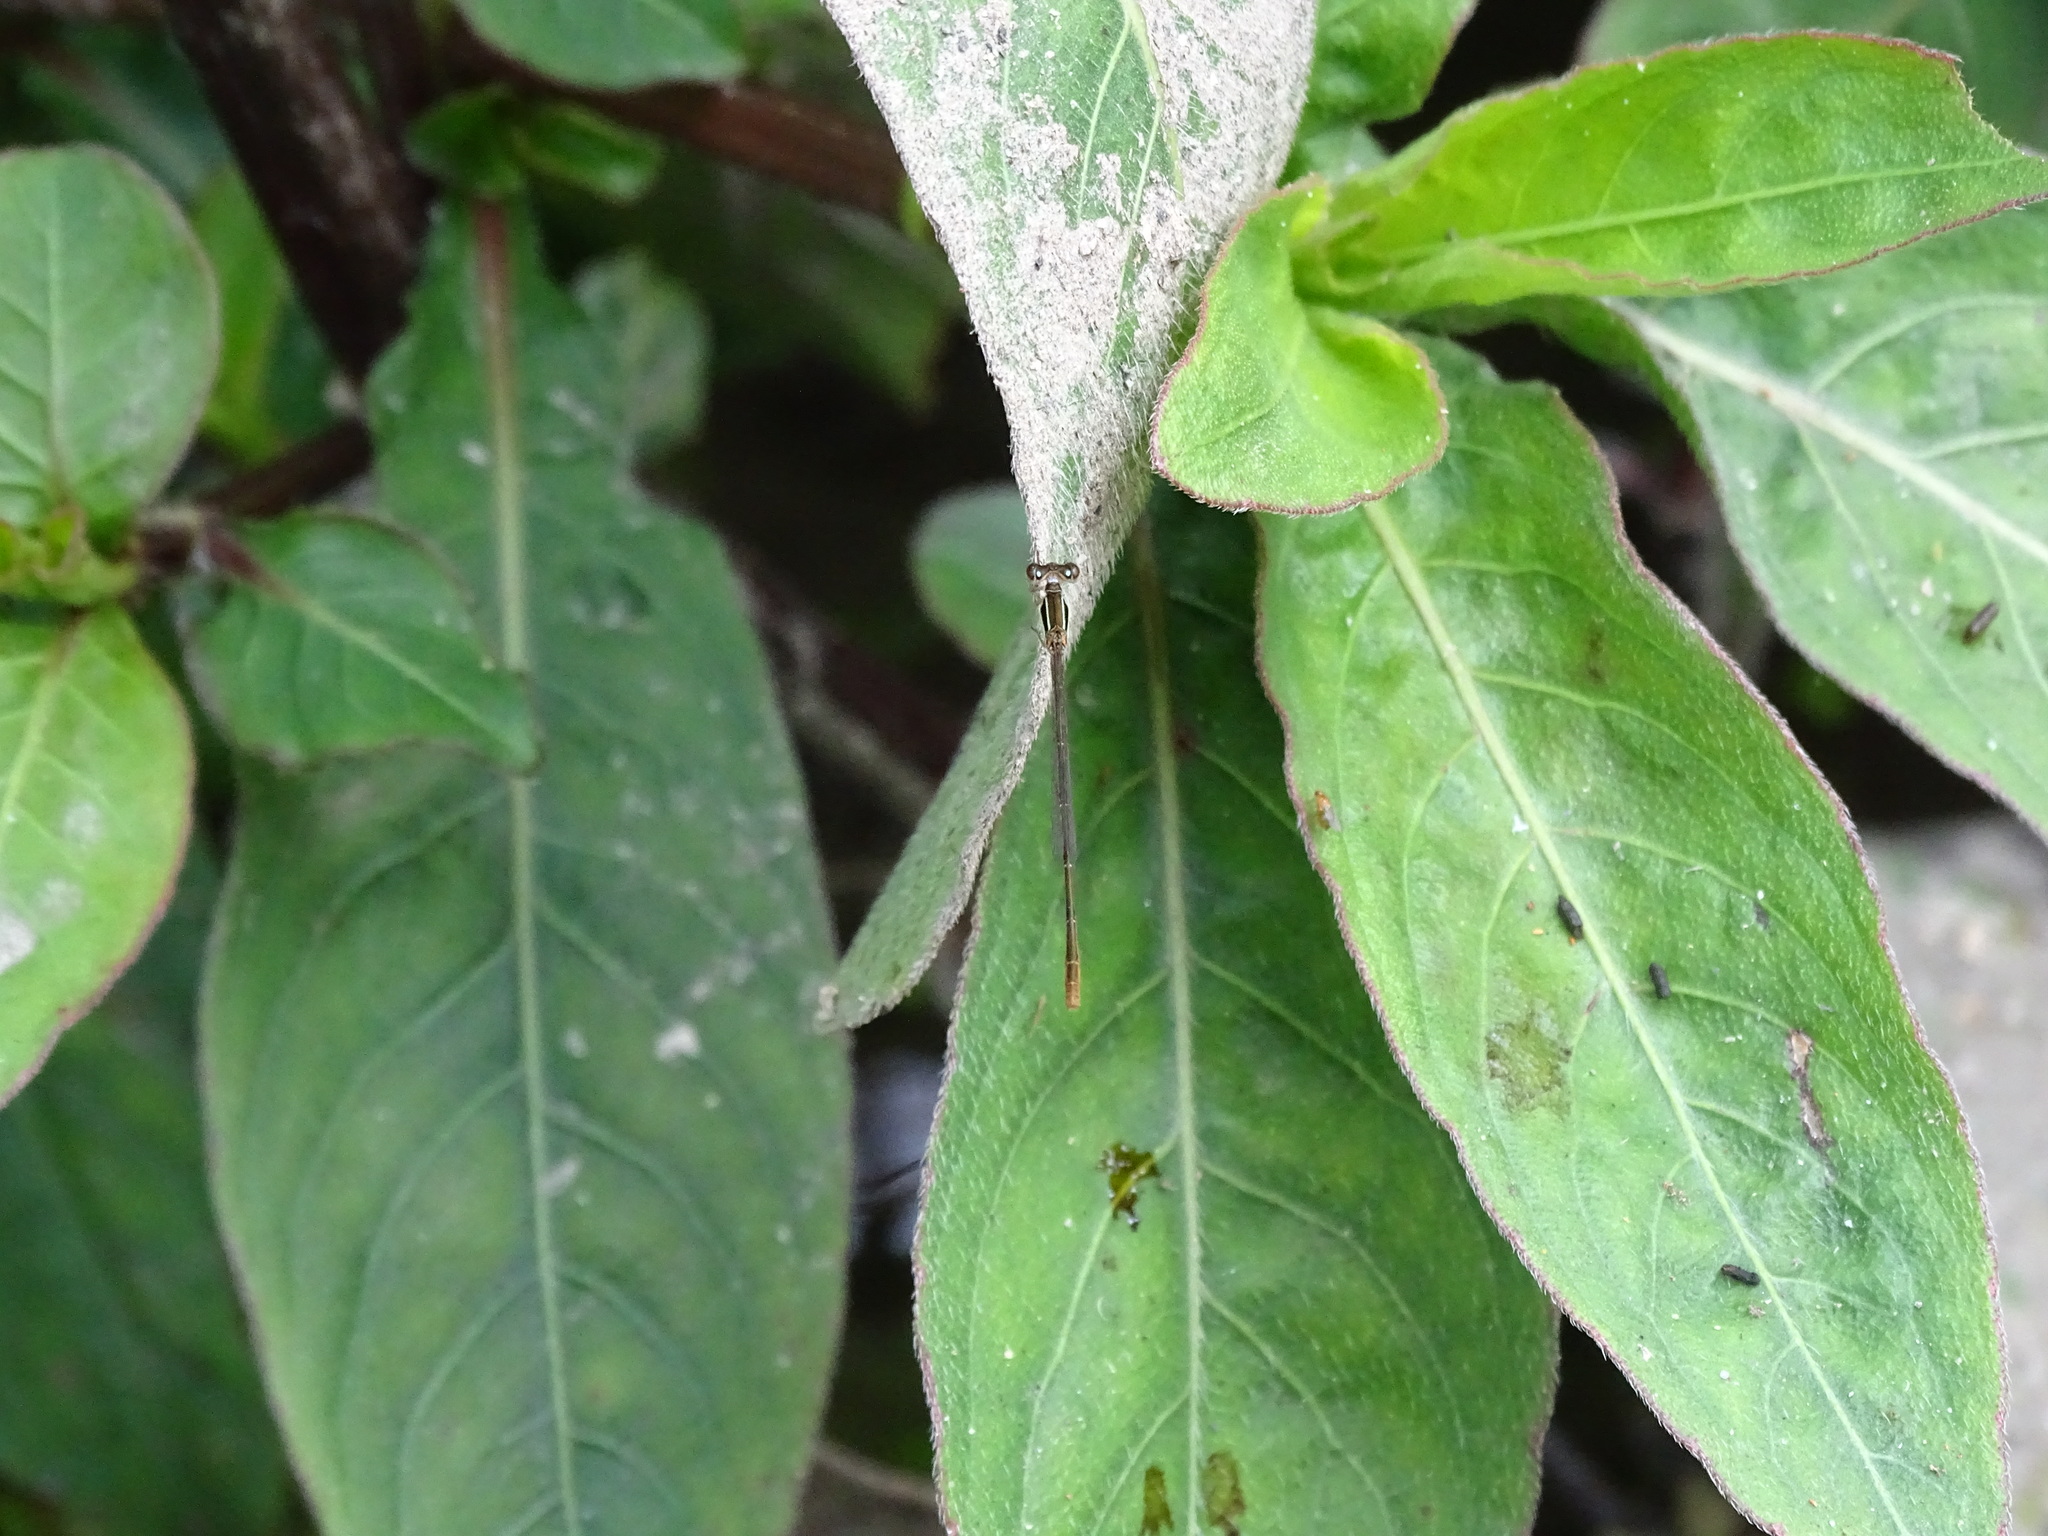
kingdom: Animalia
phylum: Arthropoda
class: Insecta
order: Odonata
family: Coenagrionidae
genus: Agriocnemis
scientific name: Agriocnemis pygmaea
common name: Pygmy wisp
